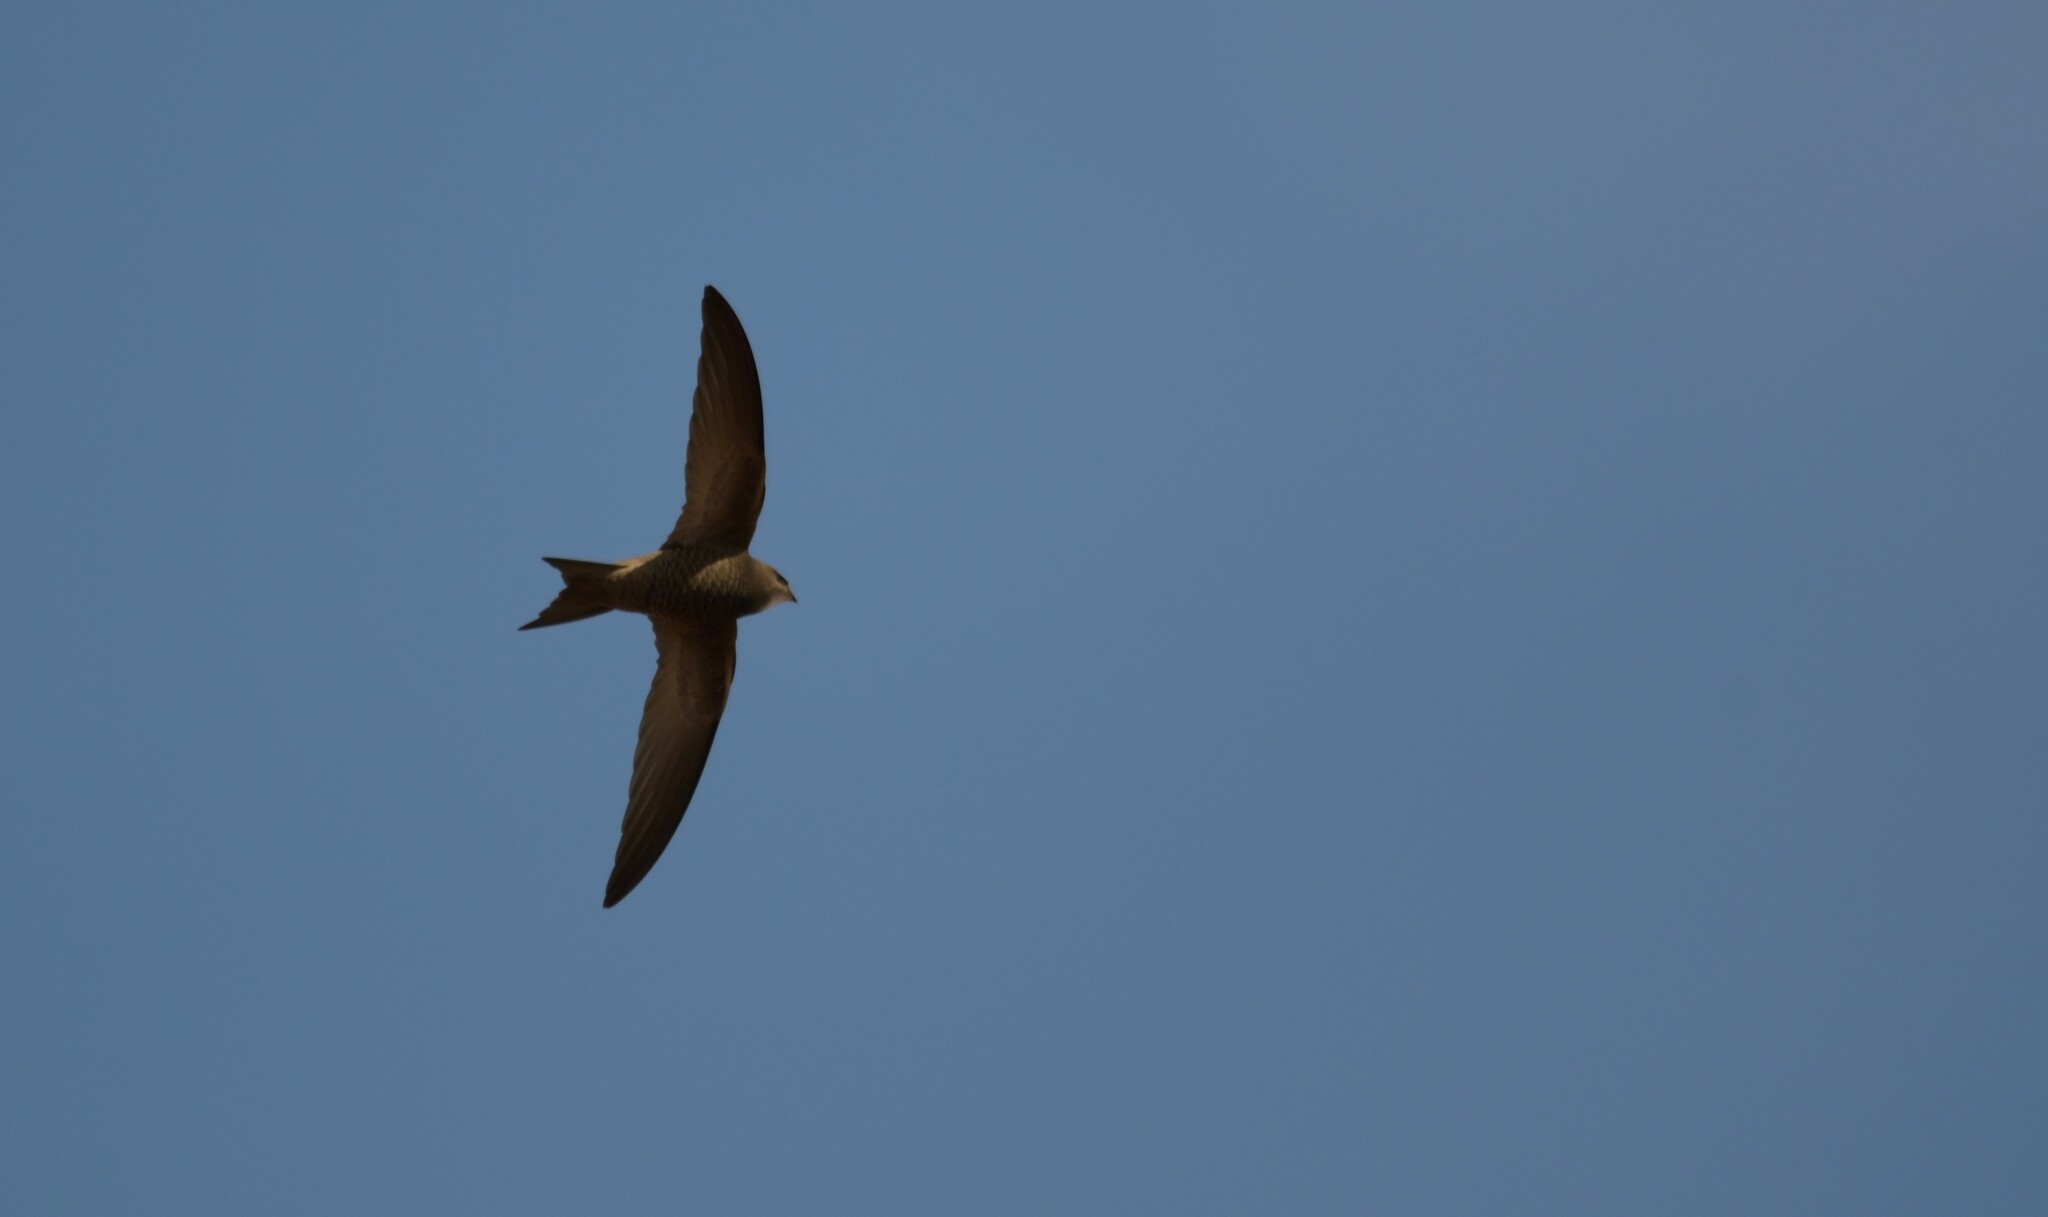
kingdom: Animalia
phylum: Chordata
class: Aves
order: Apodiformes
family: Apodidae
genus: Apus
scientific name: Apus pallidus
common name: Pallid swift
